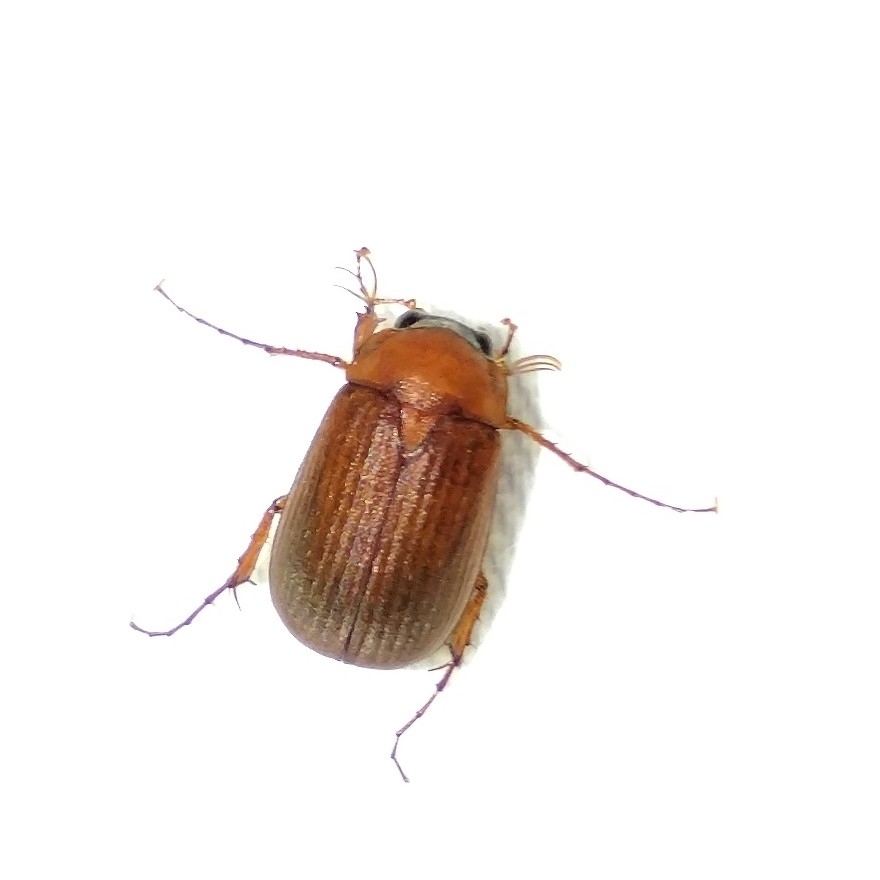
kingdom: Animalia
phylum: Arthropoda
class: Insecta
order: Coleoptera
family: Scarabaeidae
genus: Serica
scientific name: Serica brunnea
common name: Brown chafer
